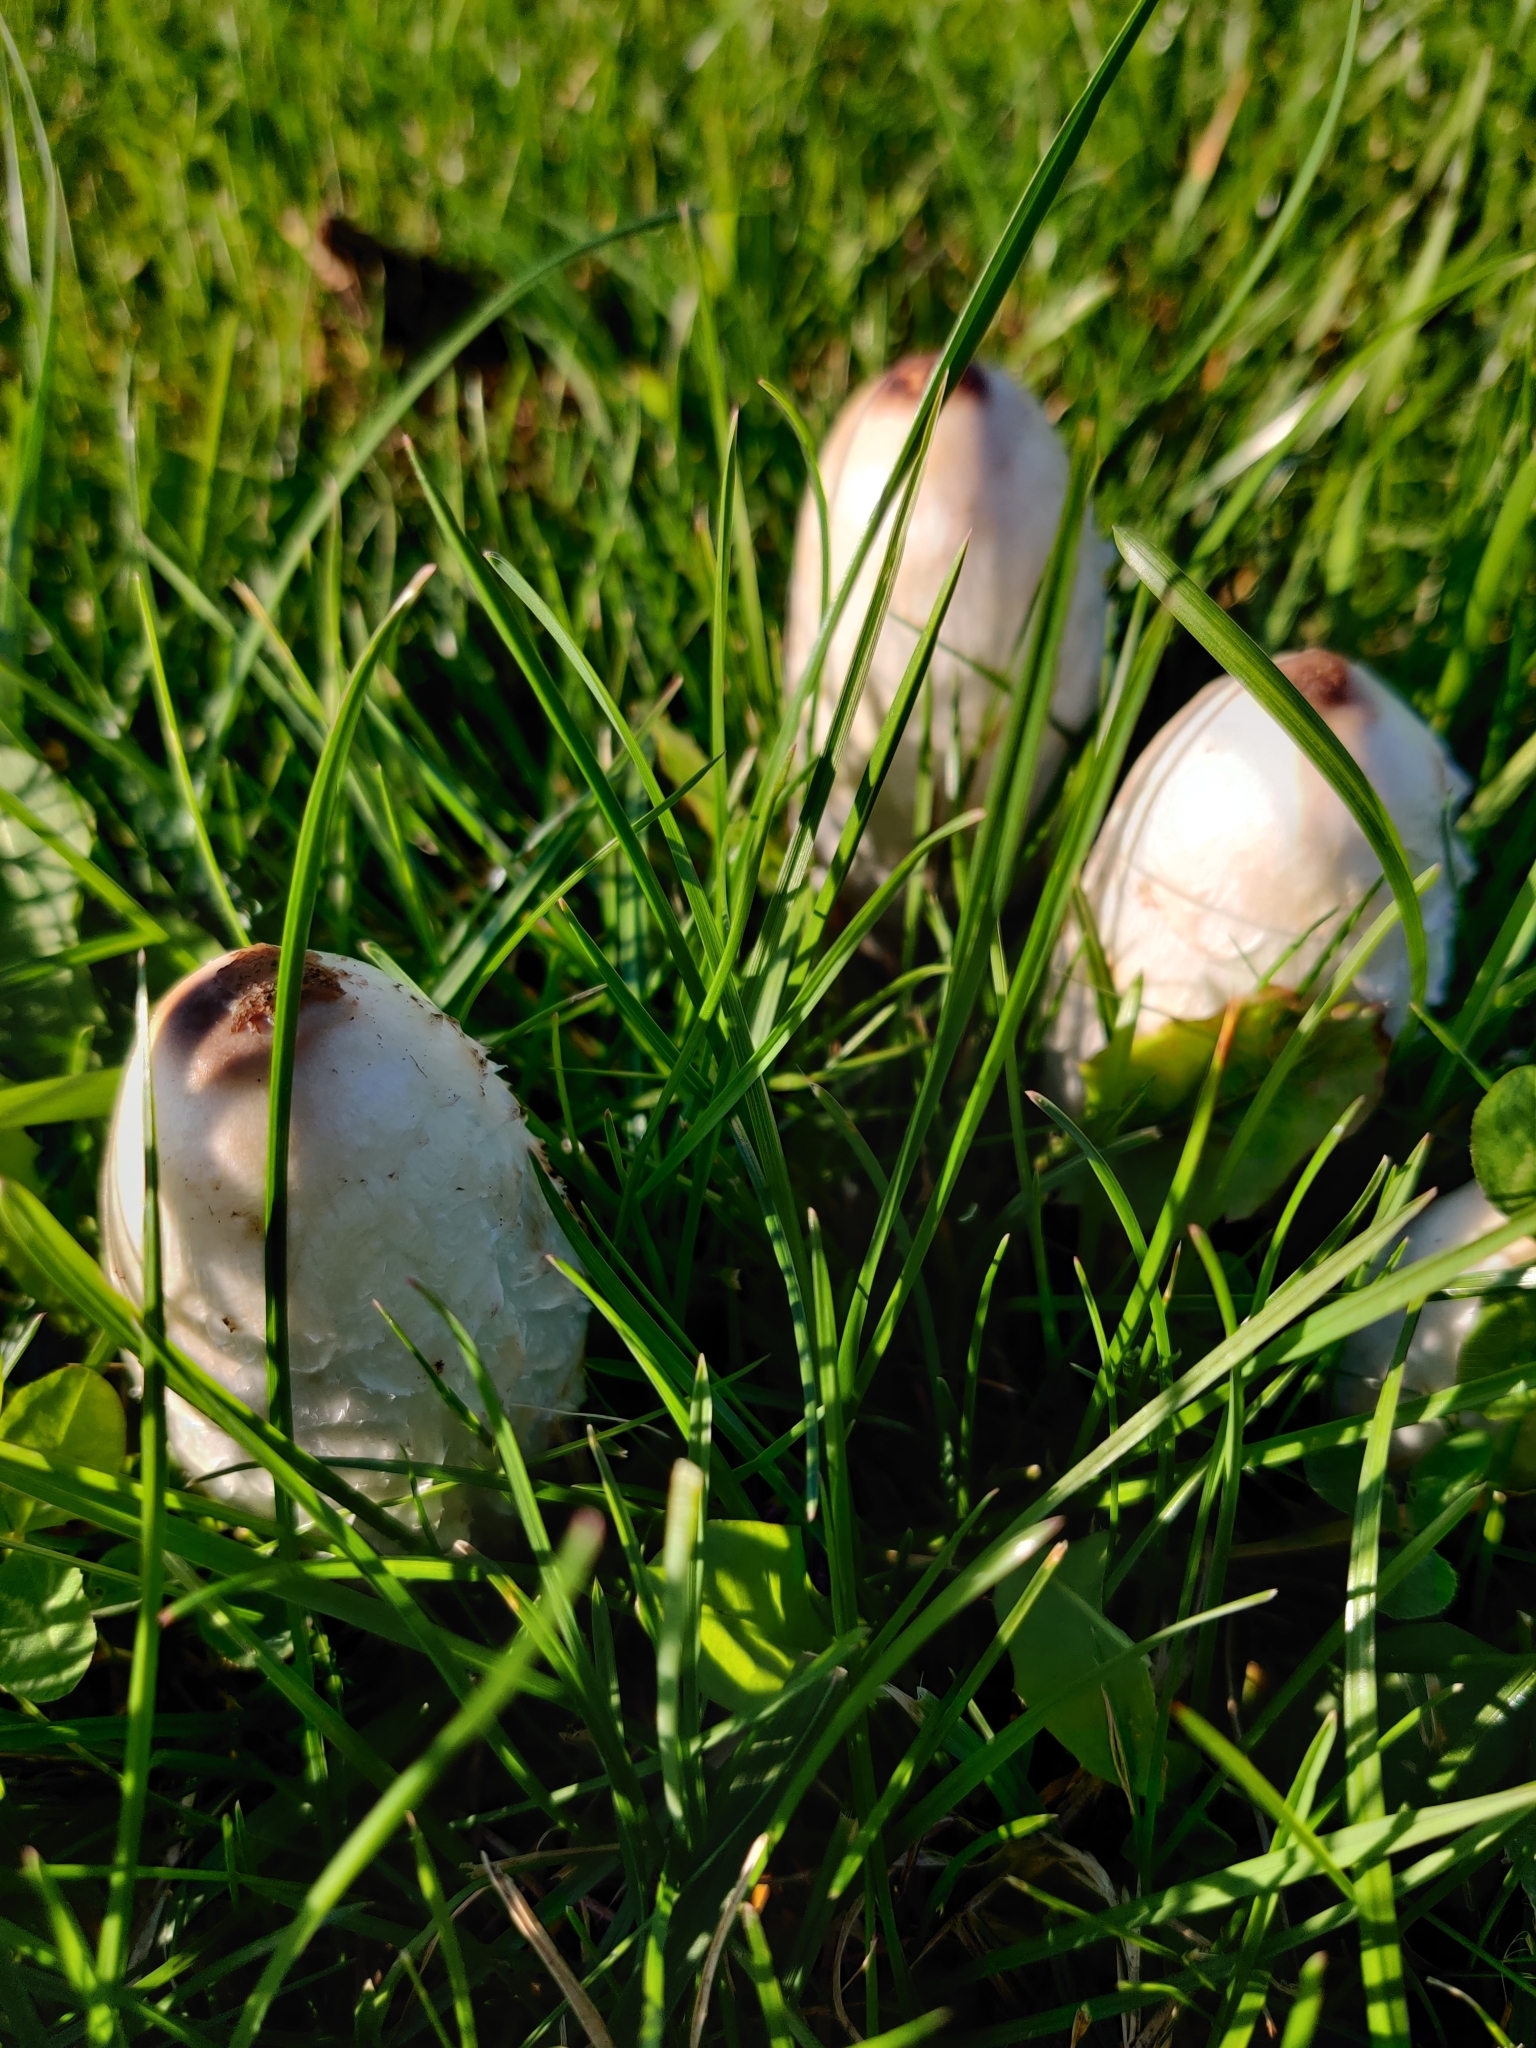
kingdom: Fungi
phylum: Basidiomycota
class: Agaricomycetes
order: Agaricales
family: Agaricaceae
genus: Coprinus
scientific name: Coprinus comatus
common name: Lawyer's wig
